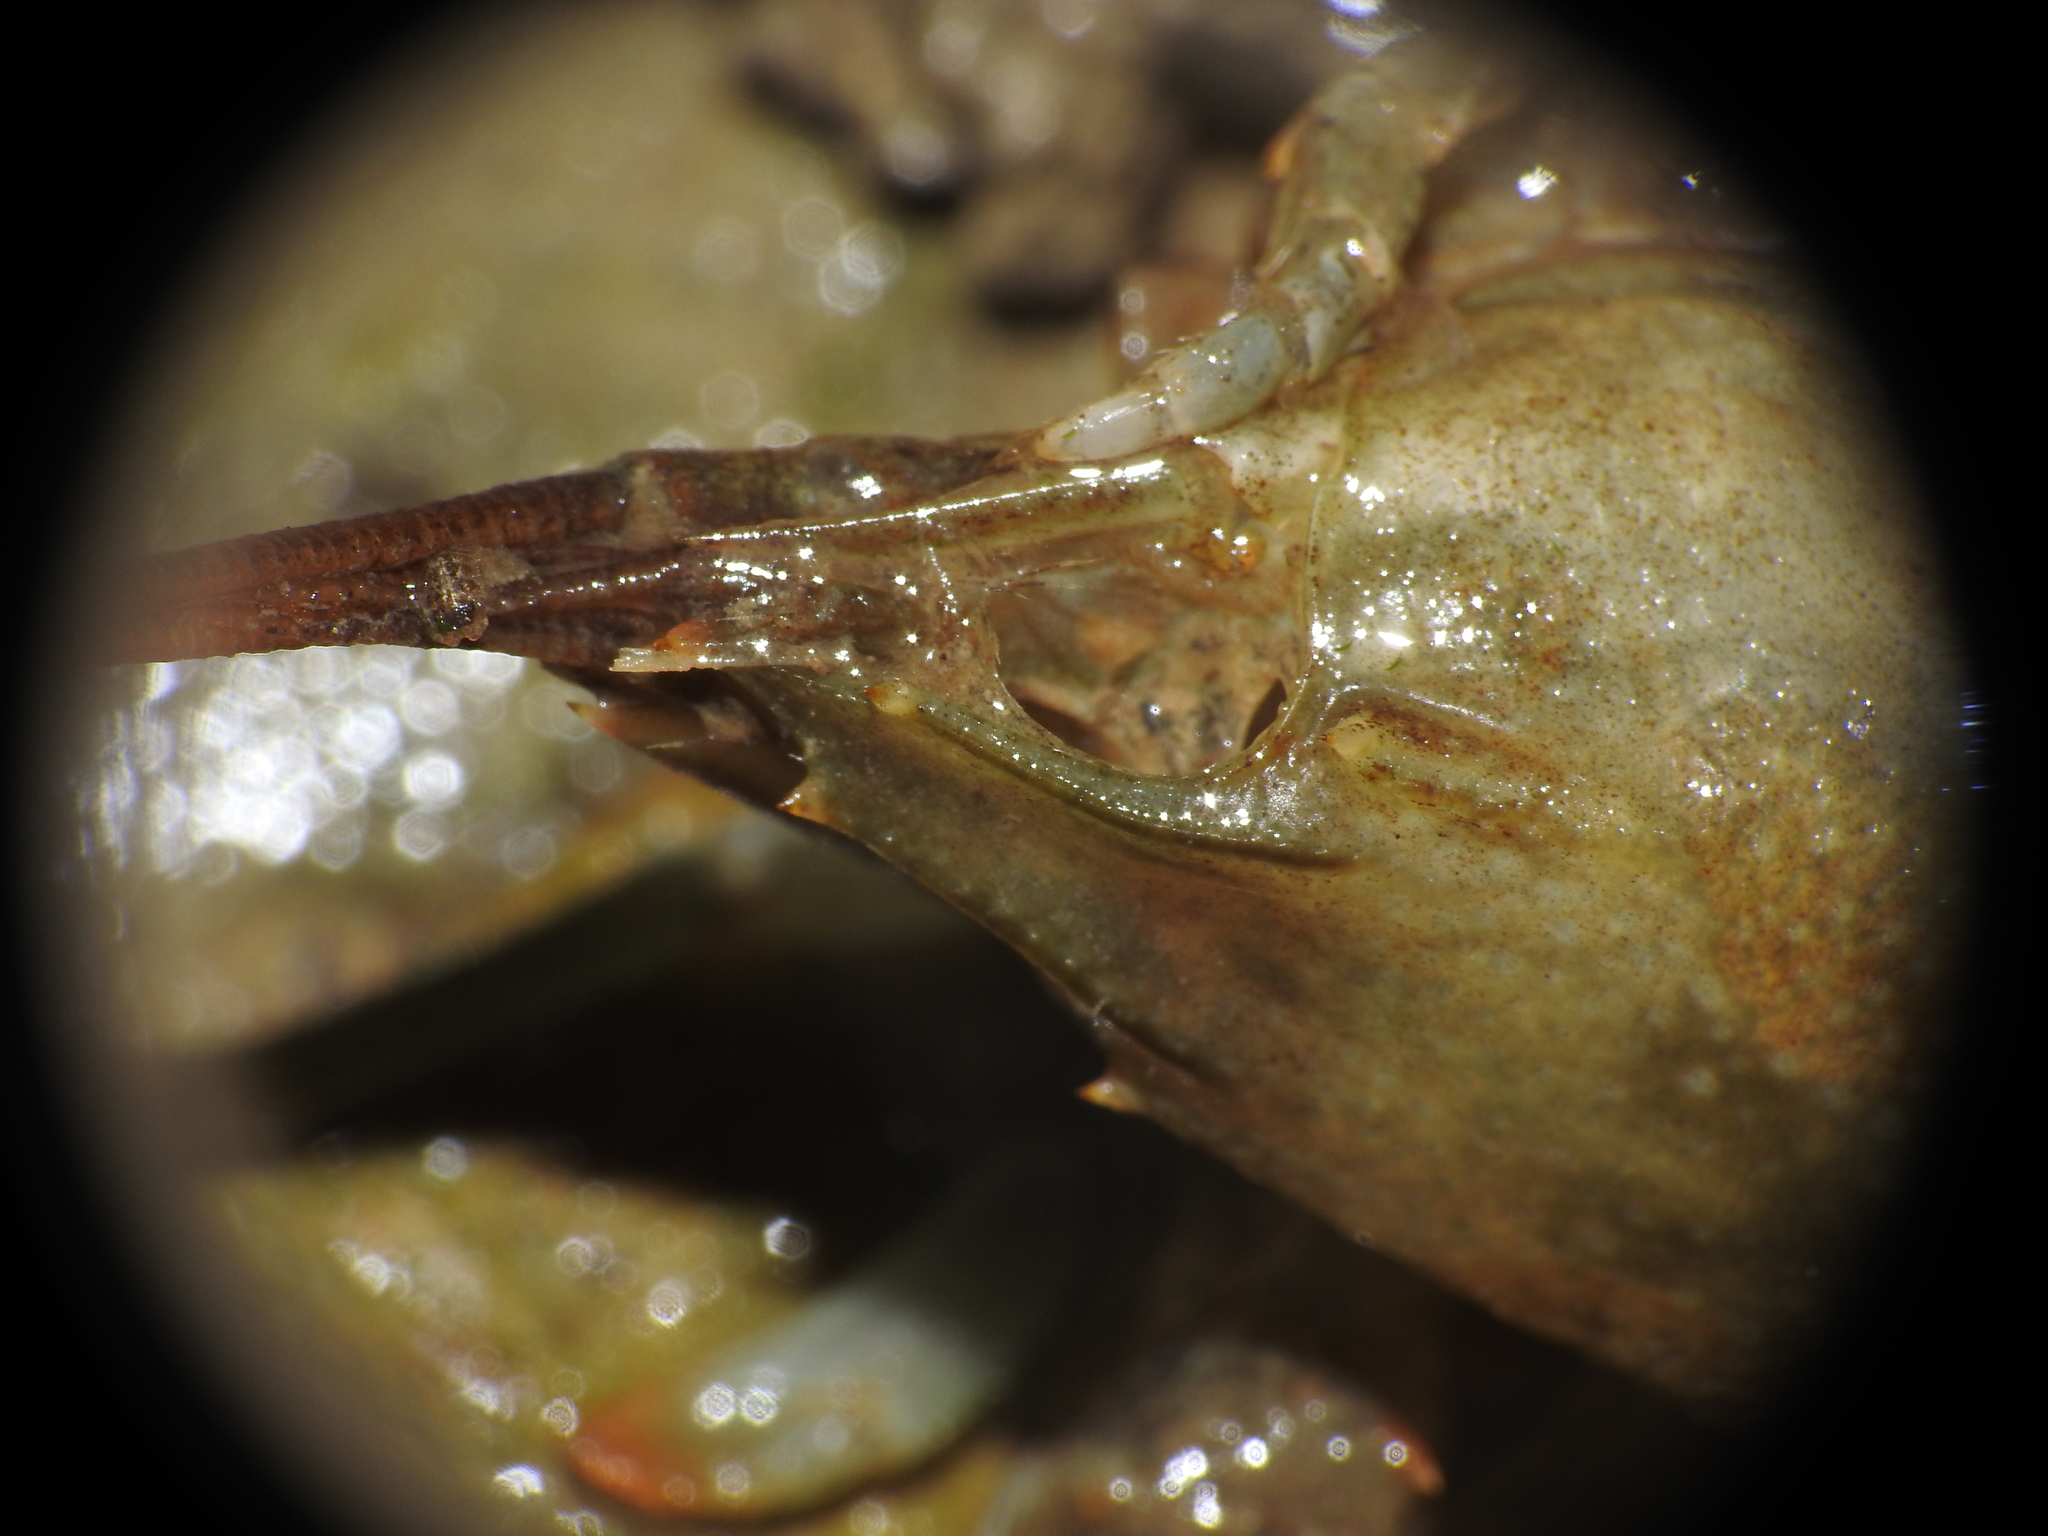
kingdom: Animalia
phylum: Arthropoda
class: Malacostraca
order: Decapoda
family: Cambaridae
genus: Faxonius
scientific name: Faxonius rusticus
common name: Rusty crayfish
